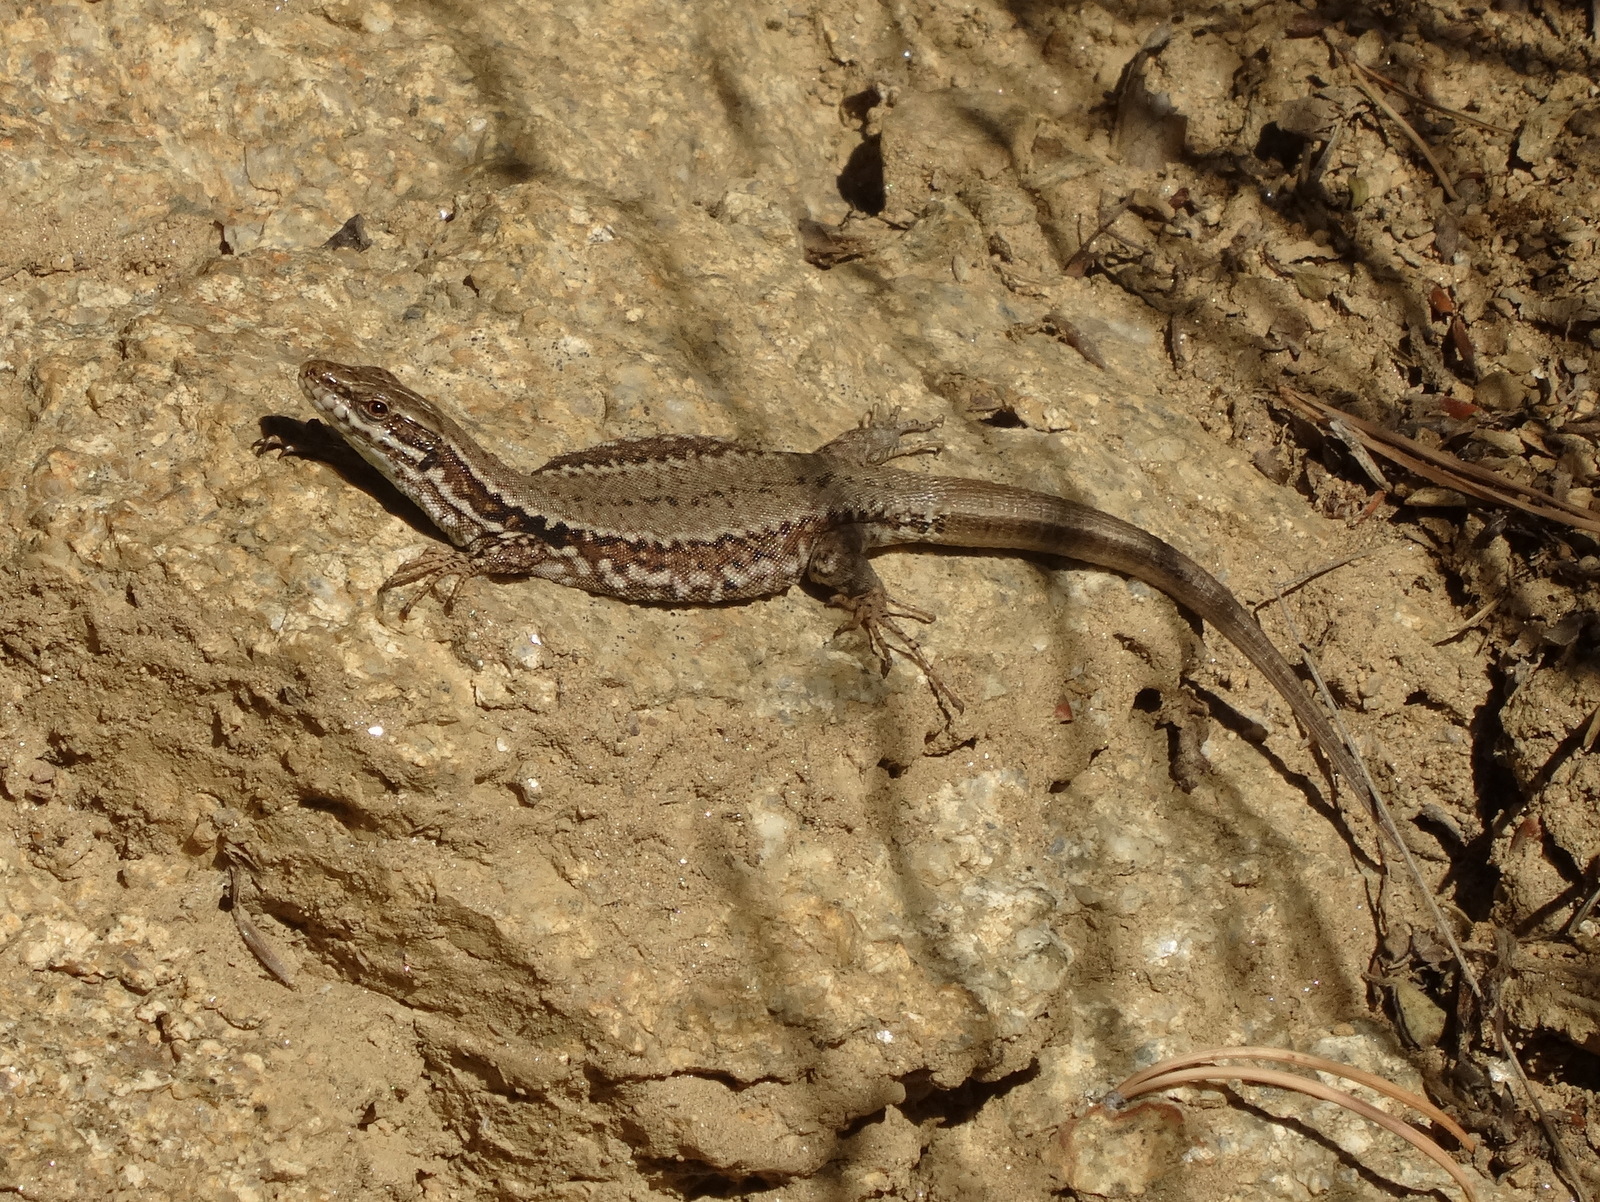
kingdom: Animalia
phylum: Chordata
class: Squamata
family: Lacertidae
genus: Podarcis
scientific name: Podarcis muralis
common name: Common wall lizard
